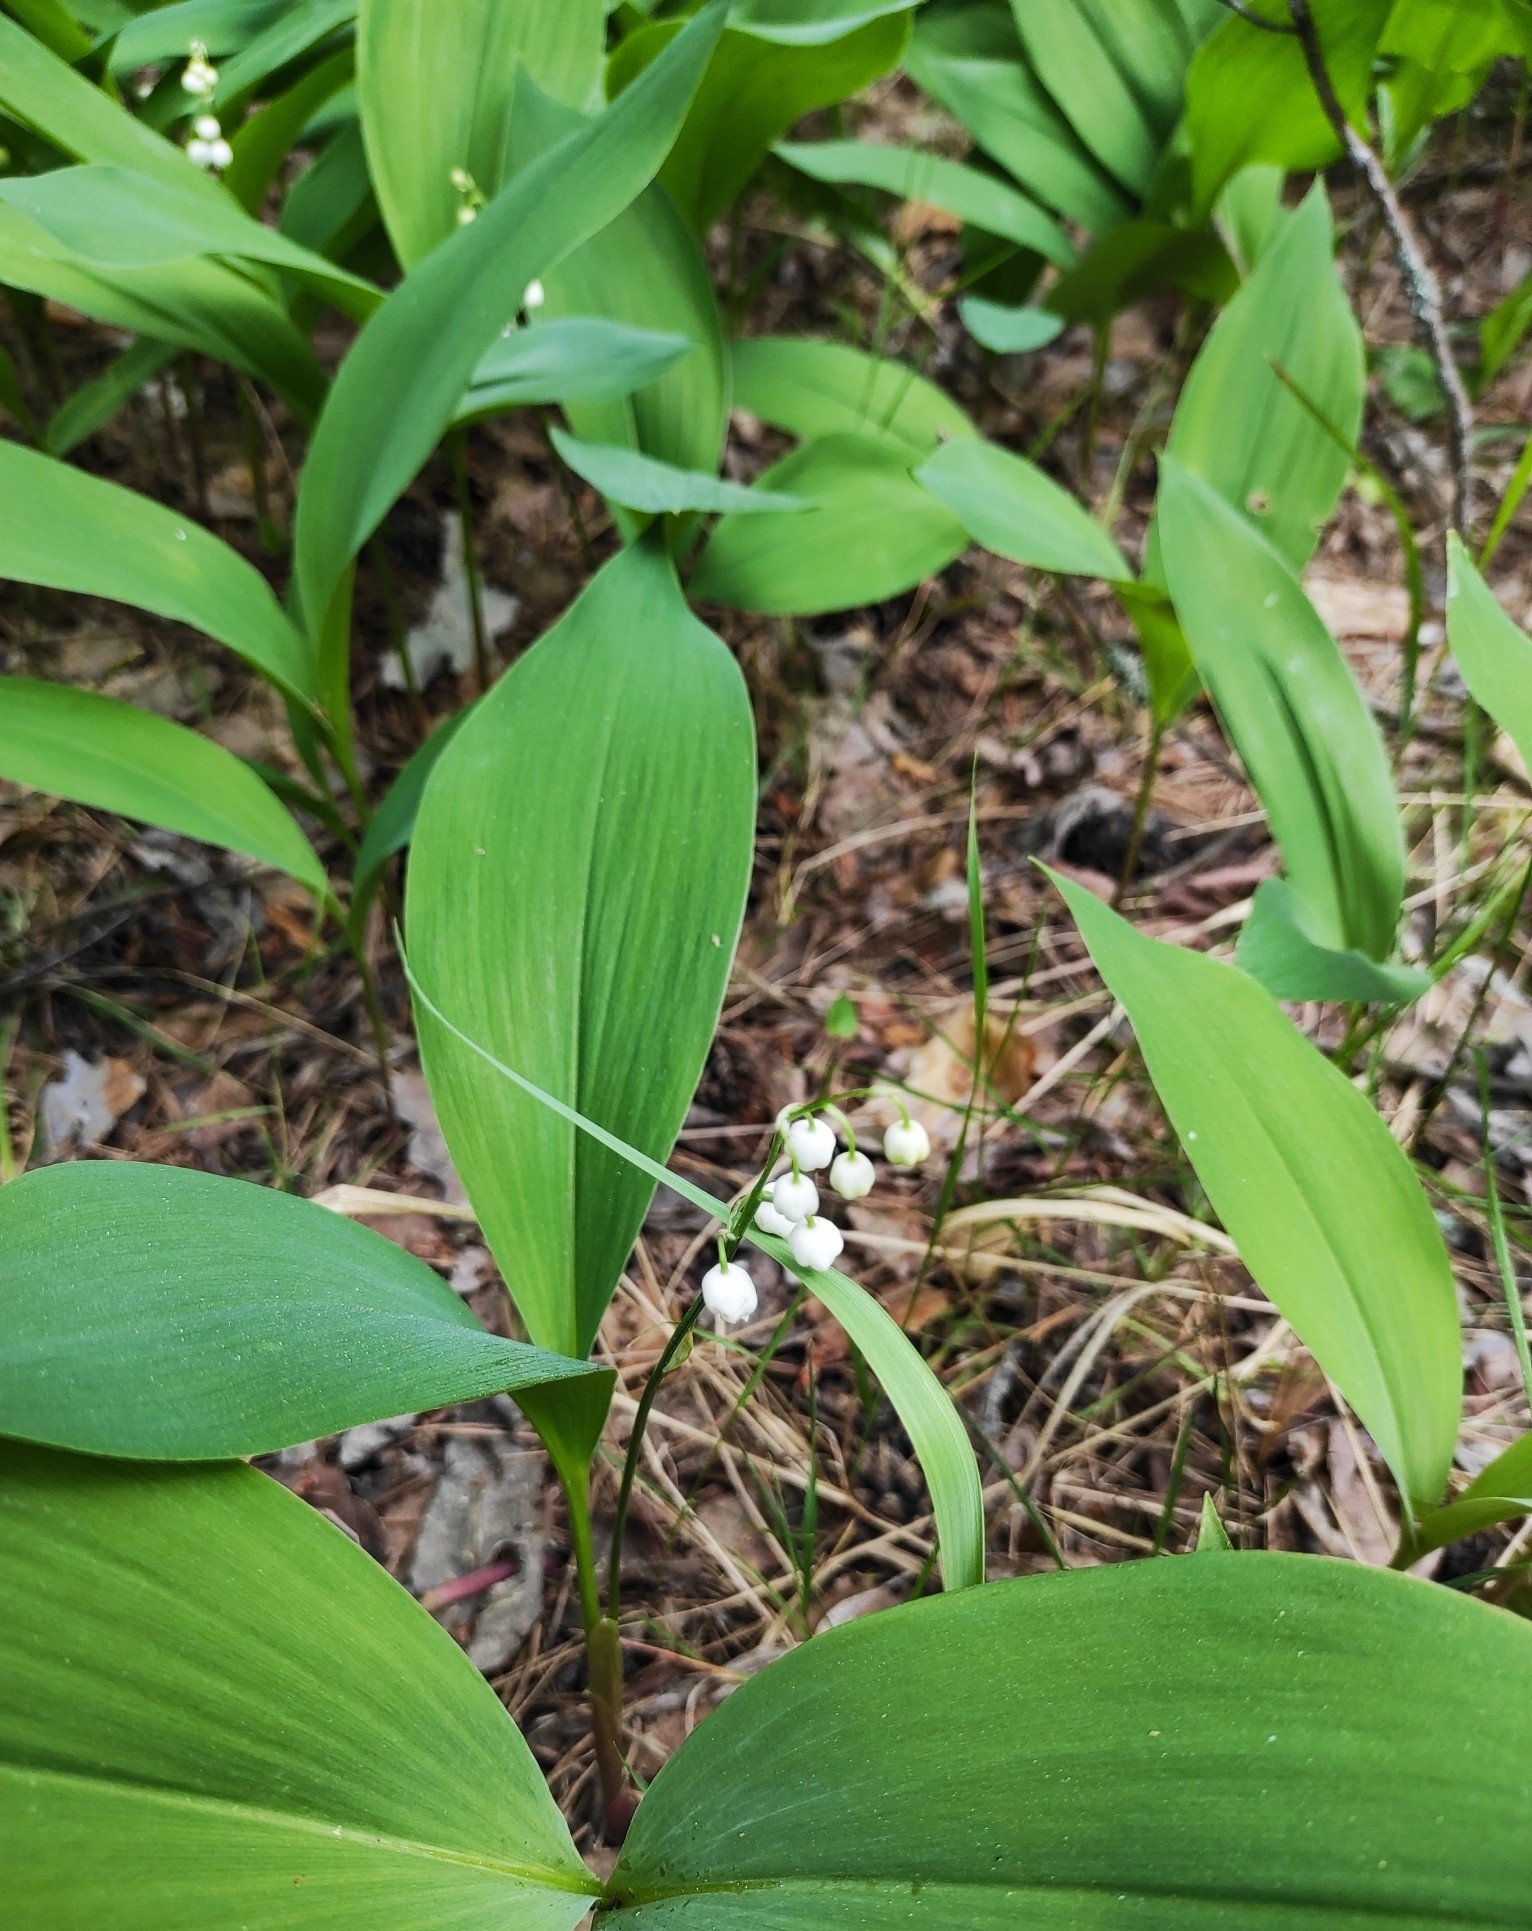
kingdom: Plantae
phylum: Tracheophyta
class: Liliopsida
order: Asparagales
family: Asparagaceae
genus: Convallaria
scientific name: Convallaria majalis
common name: Lily-of-the-valley
